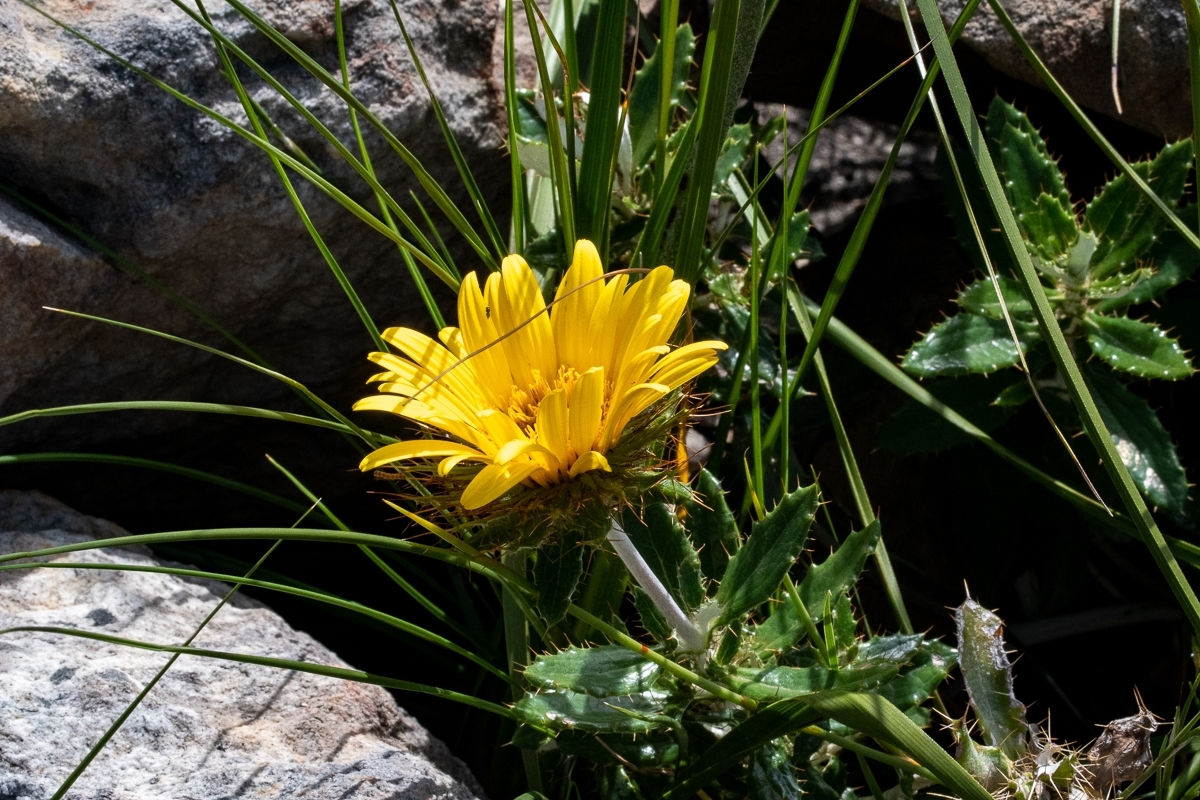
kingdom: Plantae
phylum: Tracheophyta
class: Magnoliopsida
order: Asterales
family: Asteraceae
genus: Berkheya
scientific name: Berkheya barbata
